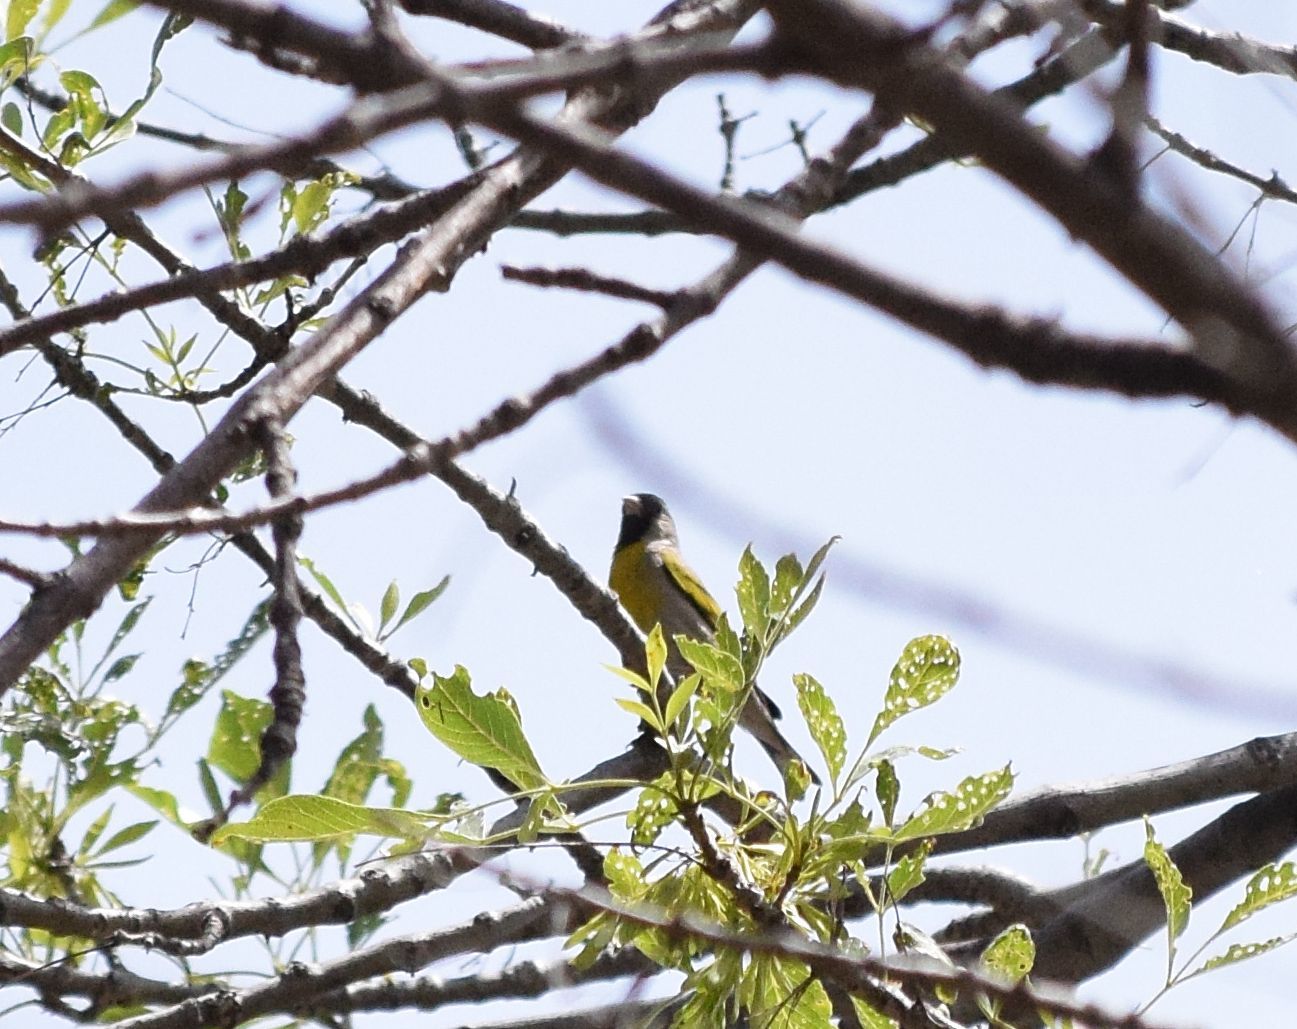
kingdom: Animalia
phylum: Chordata
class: Aves
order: Passeriformes
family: Fringillidae
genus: Spinus
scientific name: Spinus lawrencei
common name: Lawrence's goldfinch
